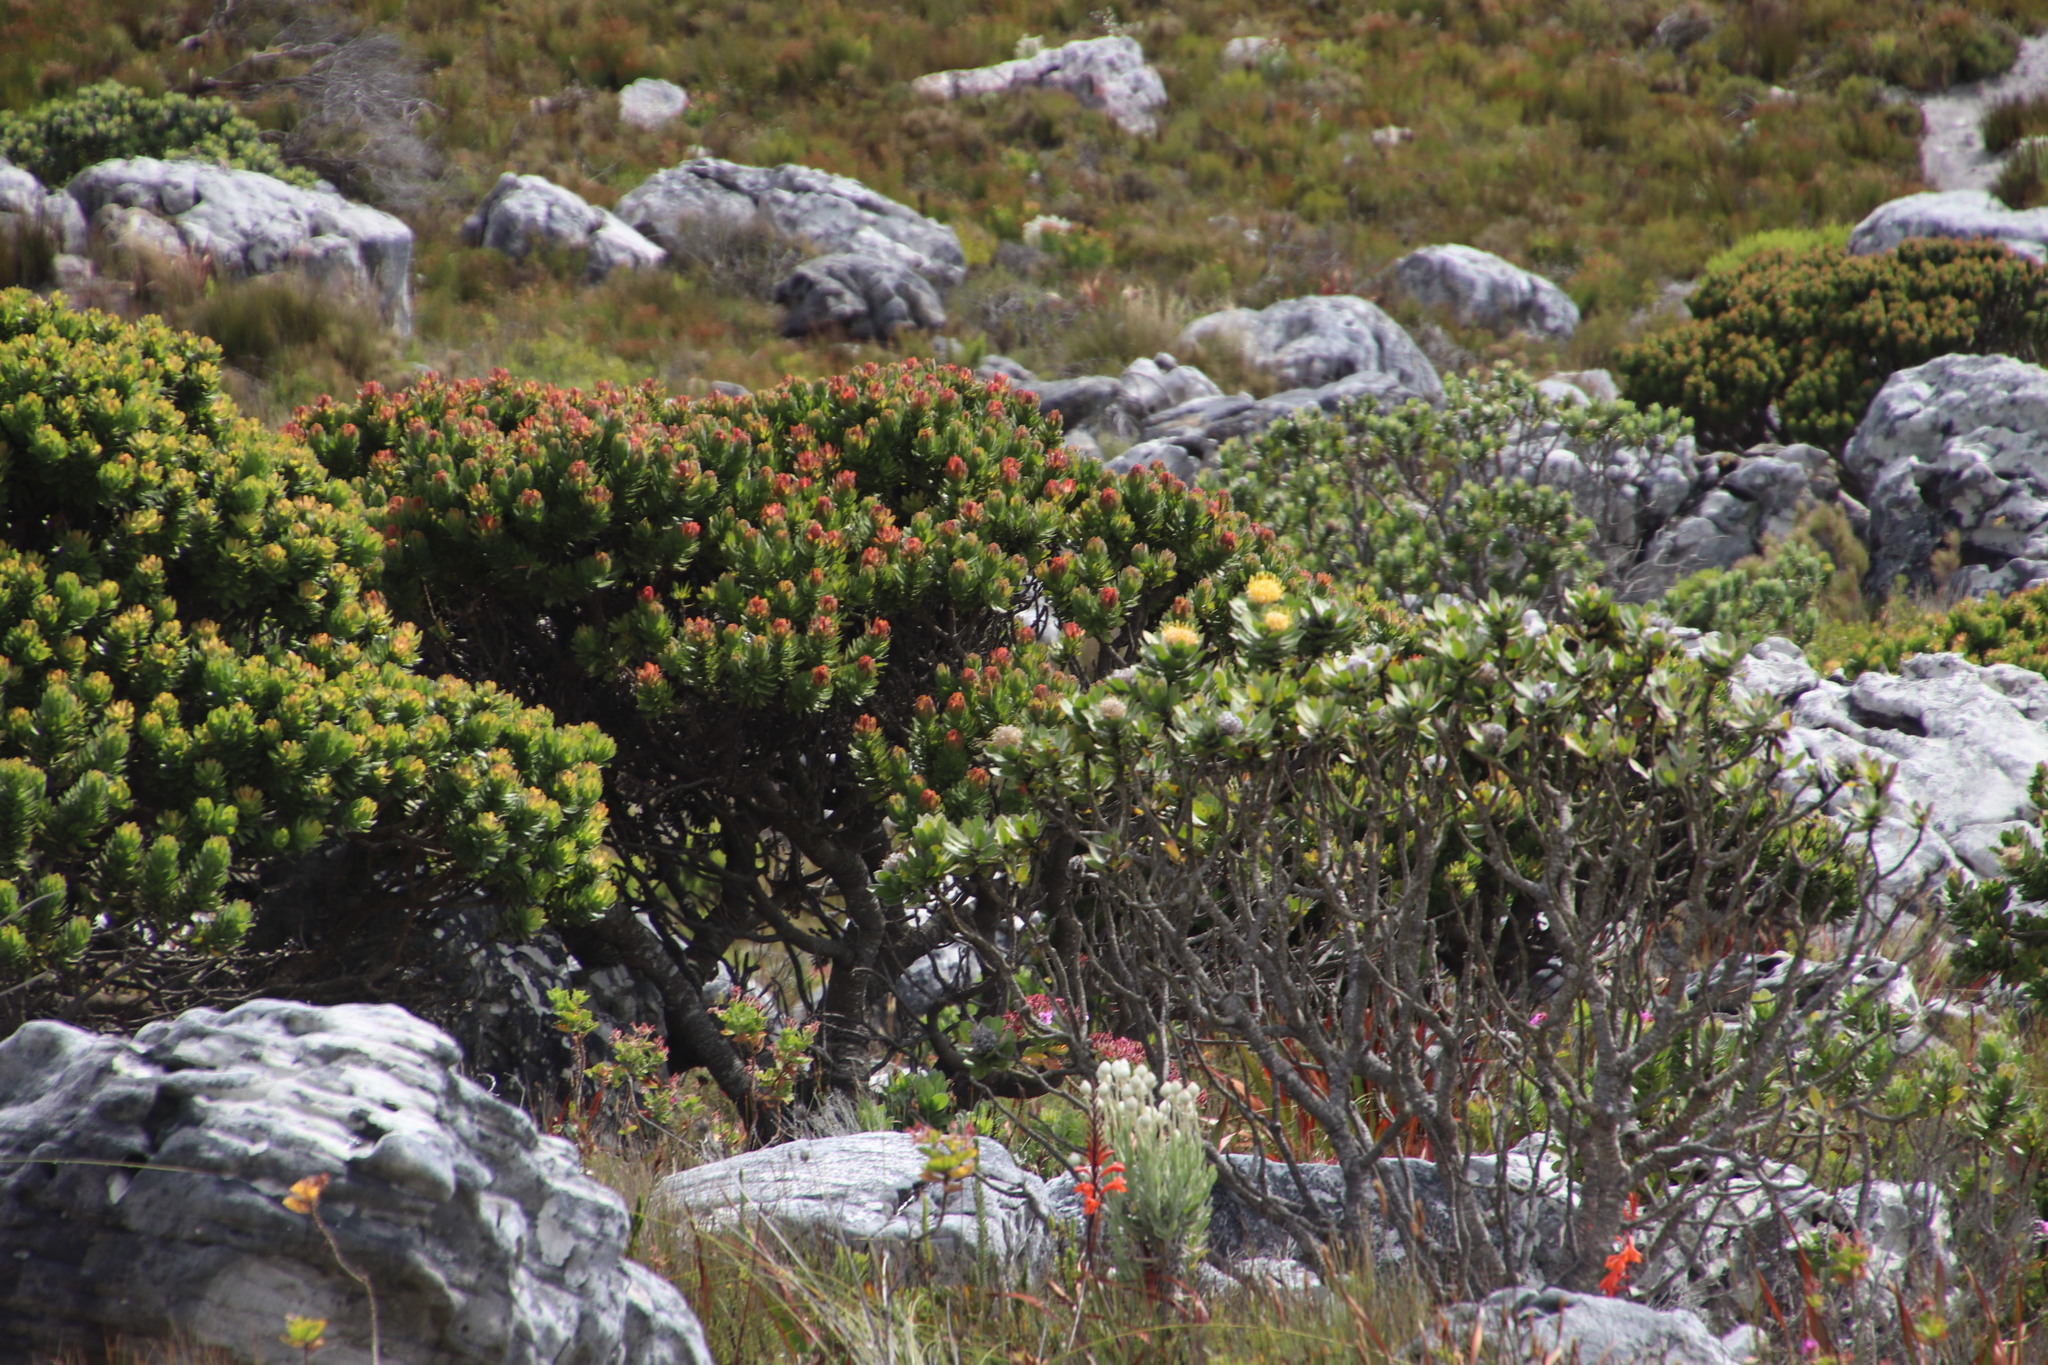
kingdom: Plantae
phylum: Tracheophyta
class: Magnoliopsida
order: Proteales
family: Proteaceae
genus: Mimetes
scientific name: Mimetes fimbriifolius
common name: Fringed bottlebrush
